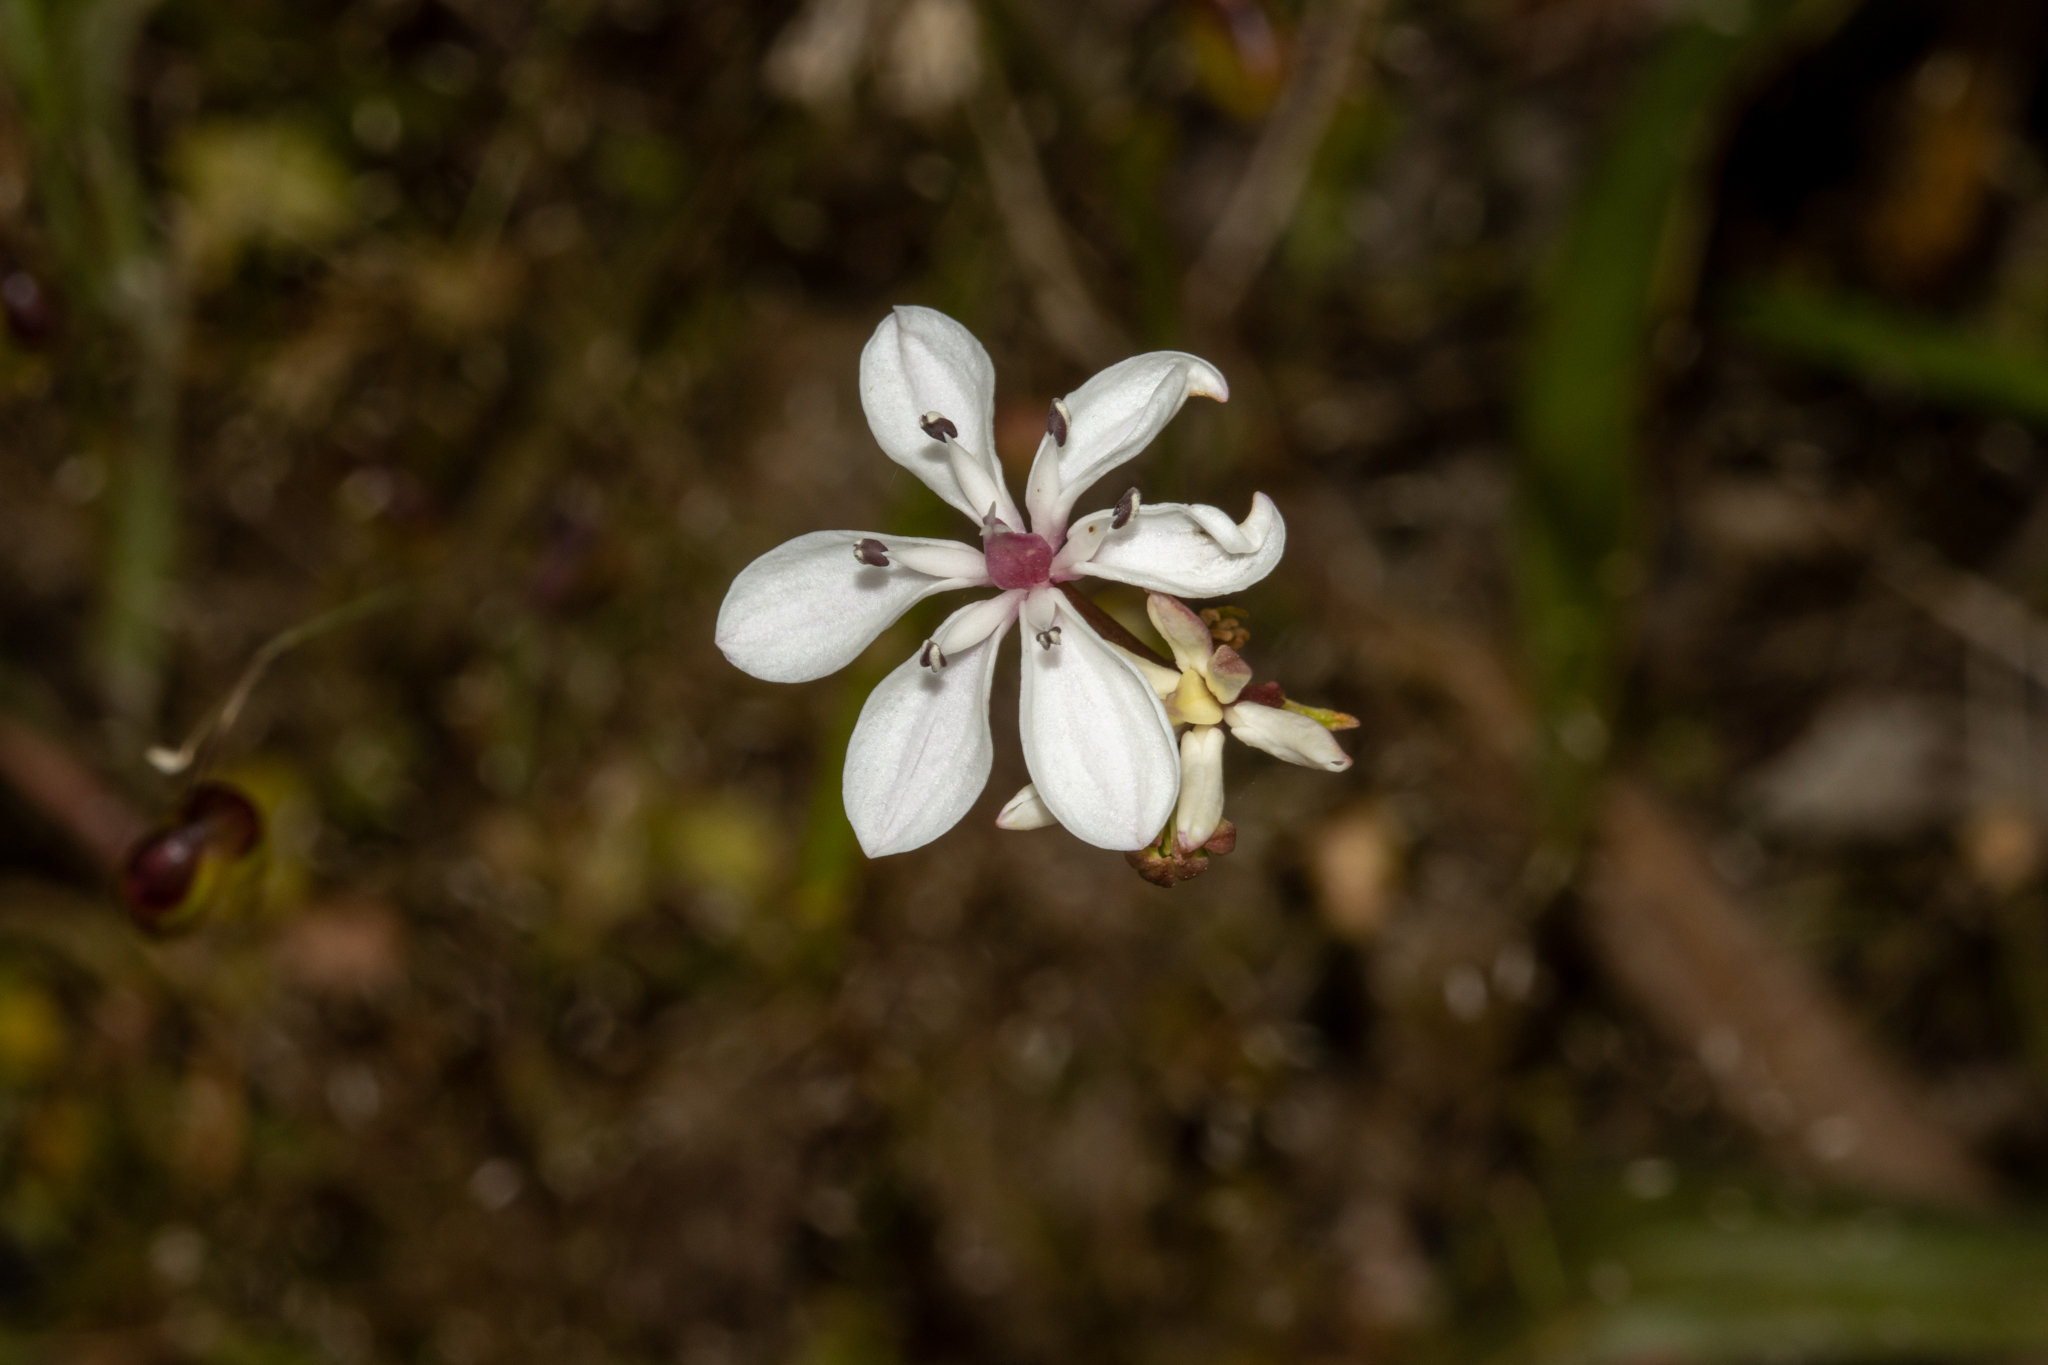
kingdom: Plantae
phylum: Tracheophyta
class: Liliopsida
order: Liliales
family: Colchicaceae
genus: Burchardia
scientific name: Burchardia umbellata
